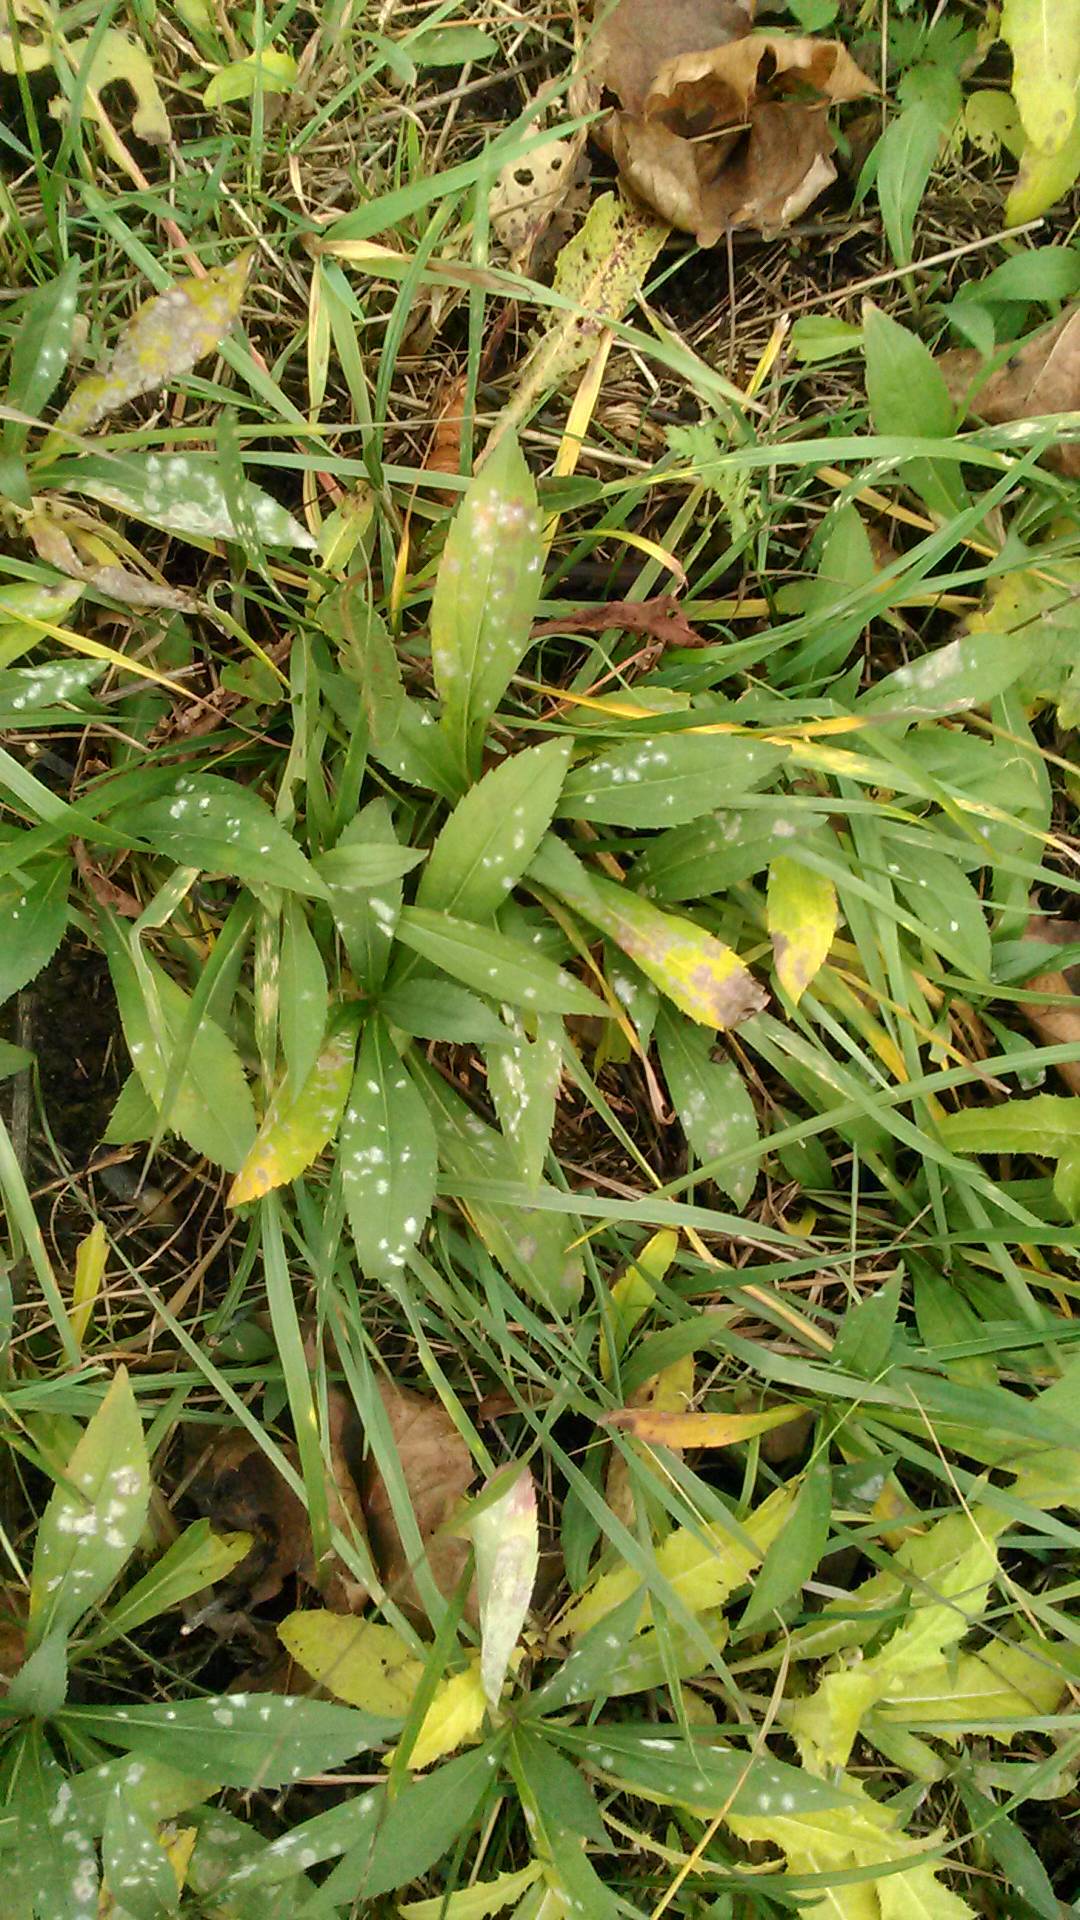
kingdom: Plantae
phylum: Tracheophyta
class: Magnoliopsida
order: Asterales
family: Asteraceae
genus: Solidago
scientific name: Solidago gigantea
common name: Giant goldenrod
